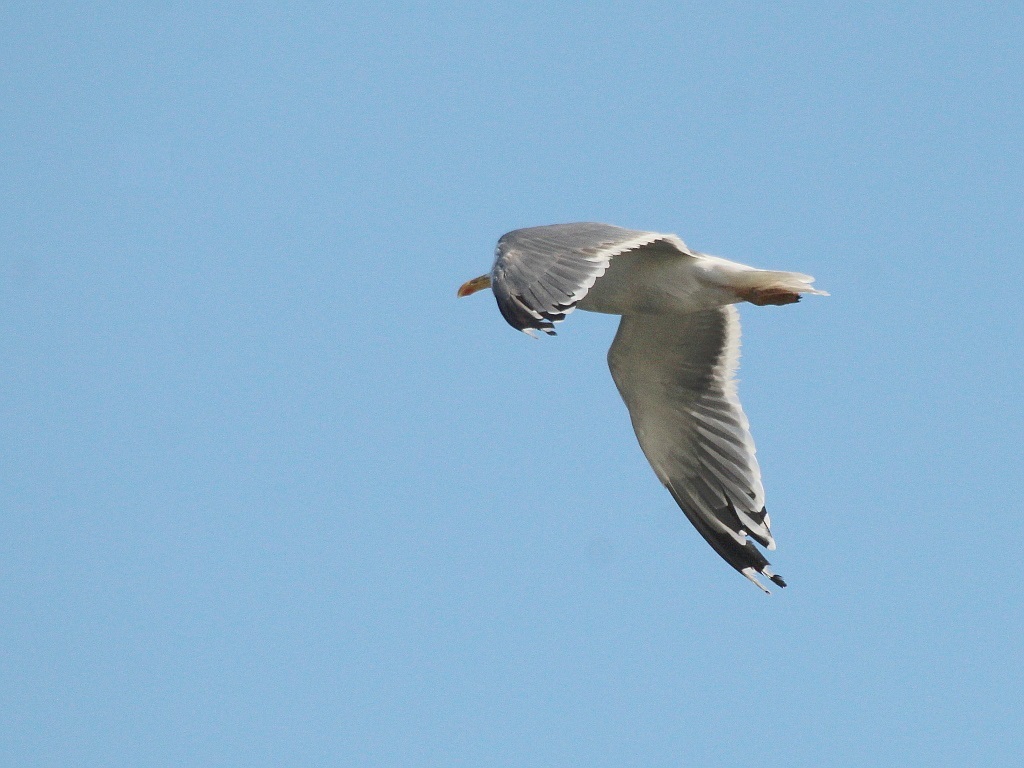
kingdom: Animalia
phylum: Chordata
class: Aves
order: Charadriiformes
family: Laridae
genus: Larus
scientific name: Larus fuscus
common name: Lesser black-backed gull
